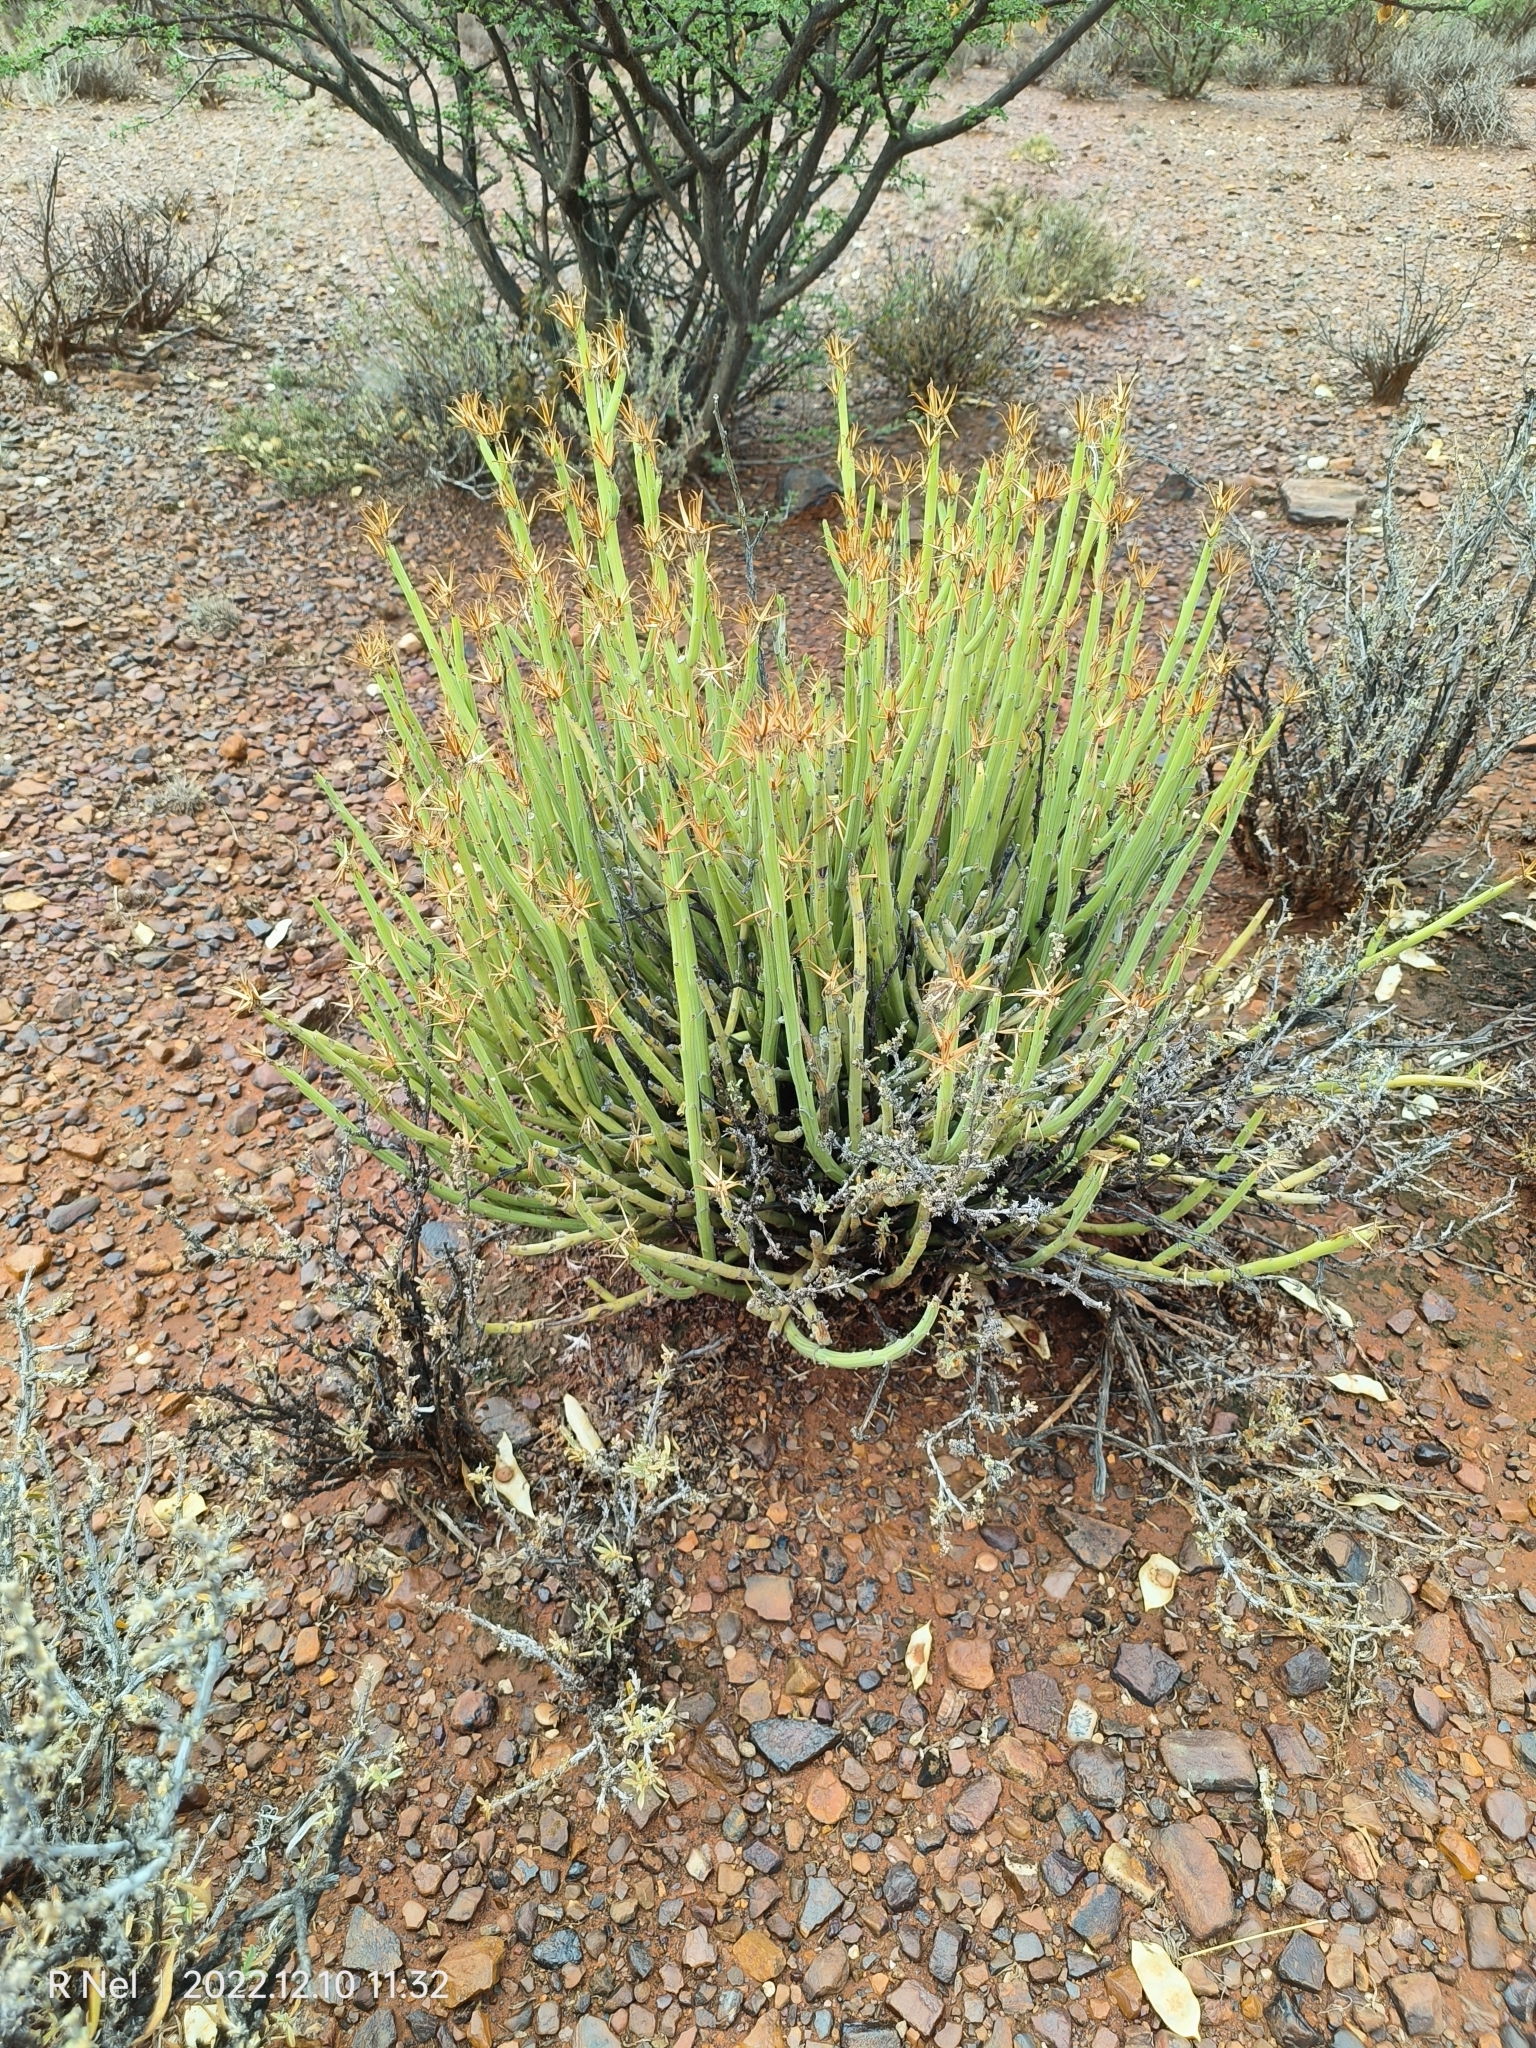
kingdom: Plantae
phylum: Tracheophyta
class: Magnoliopsida
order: Asterales
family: Asteraceae
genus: Curio
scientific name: Curio avasimontanus
